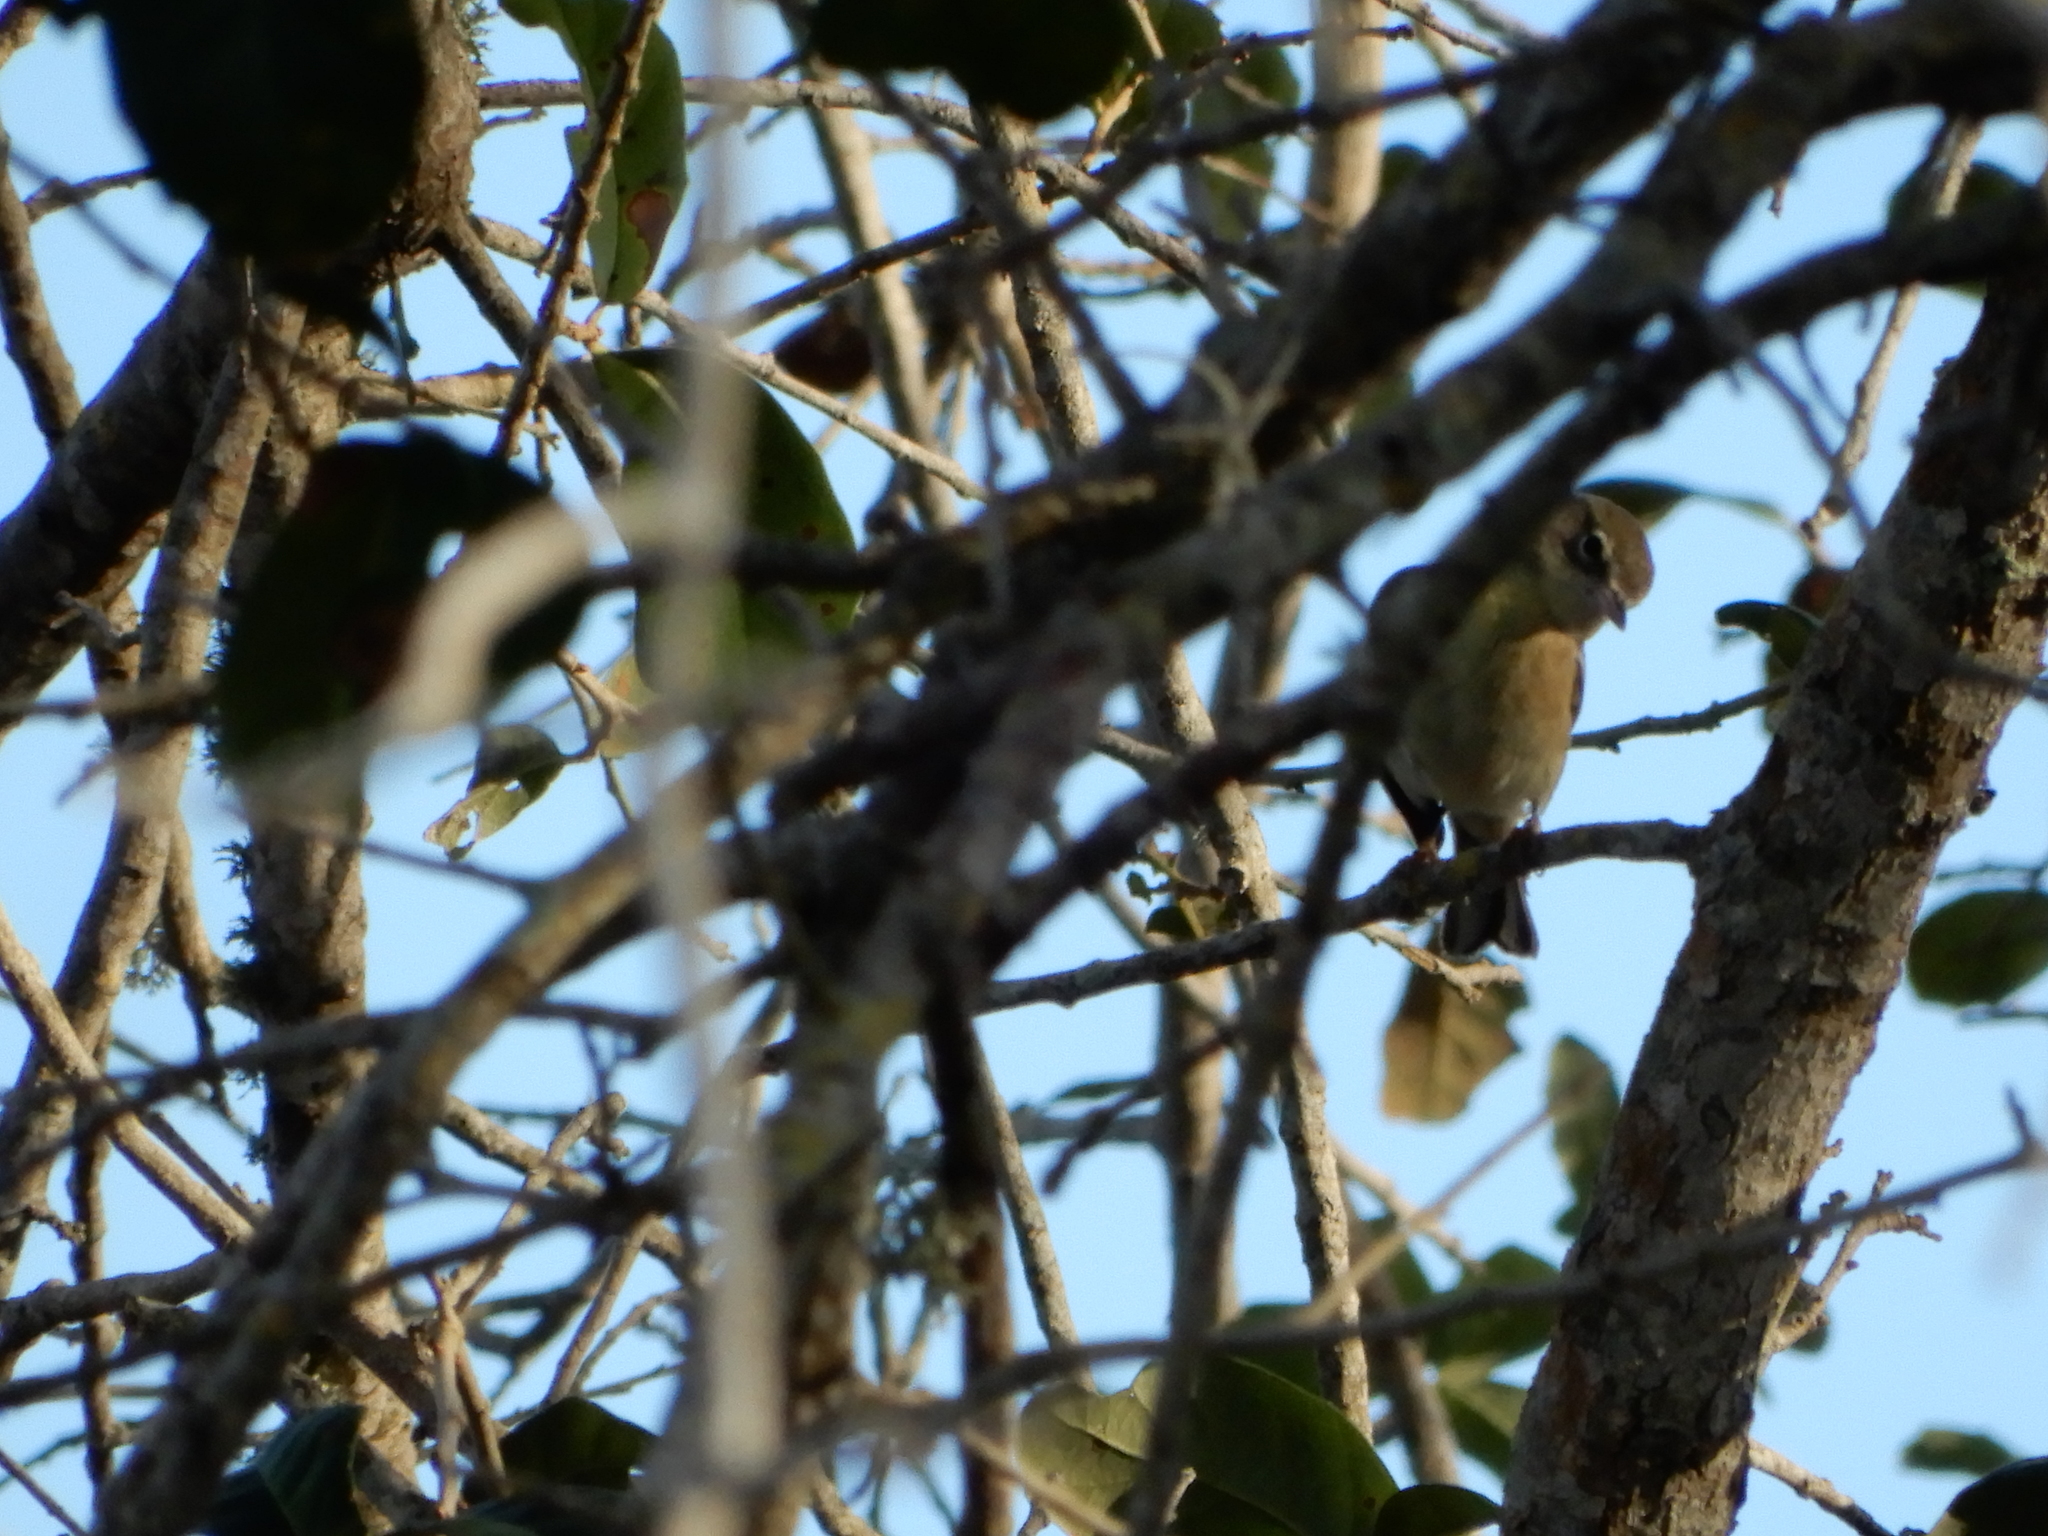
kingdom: Animalia
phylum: Chordata
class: Aves
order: Passeriformes
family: Parulidae
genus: Setophaga
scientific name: Setophaga pinus
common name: Pine warbler
